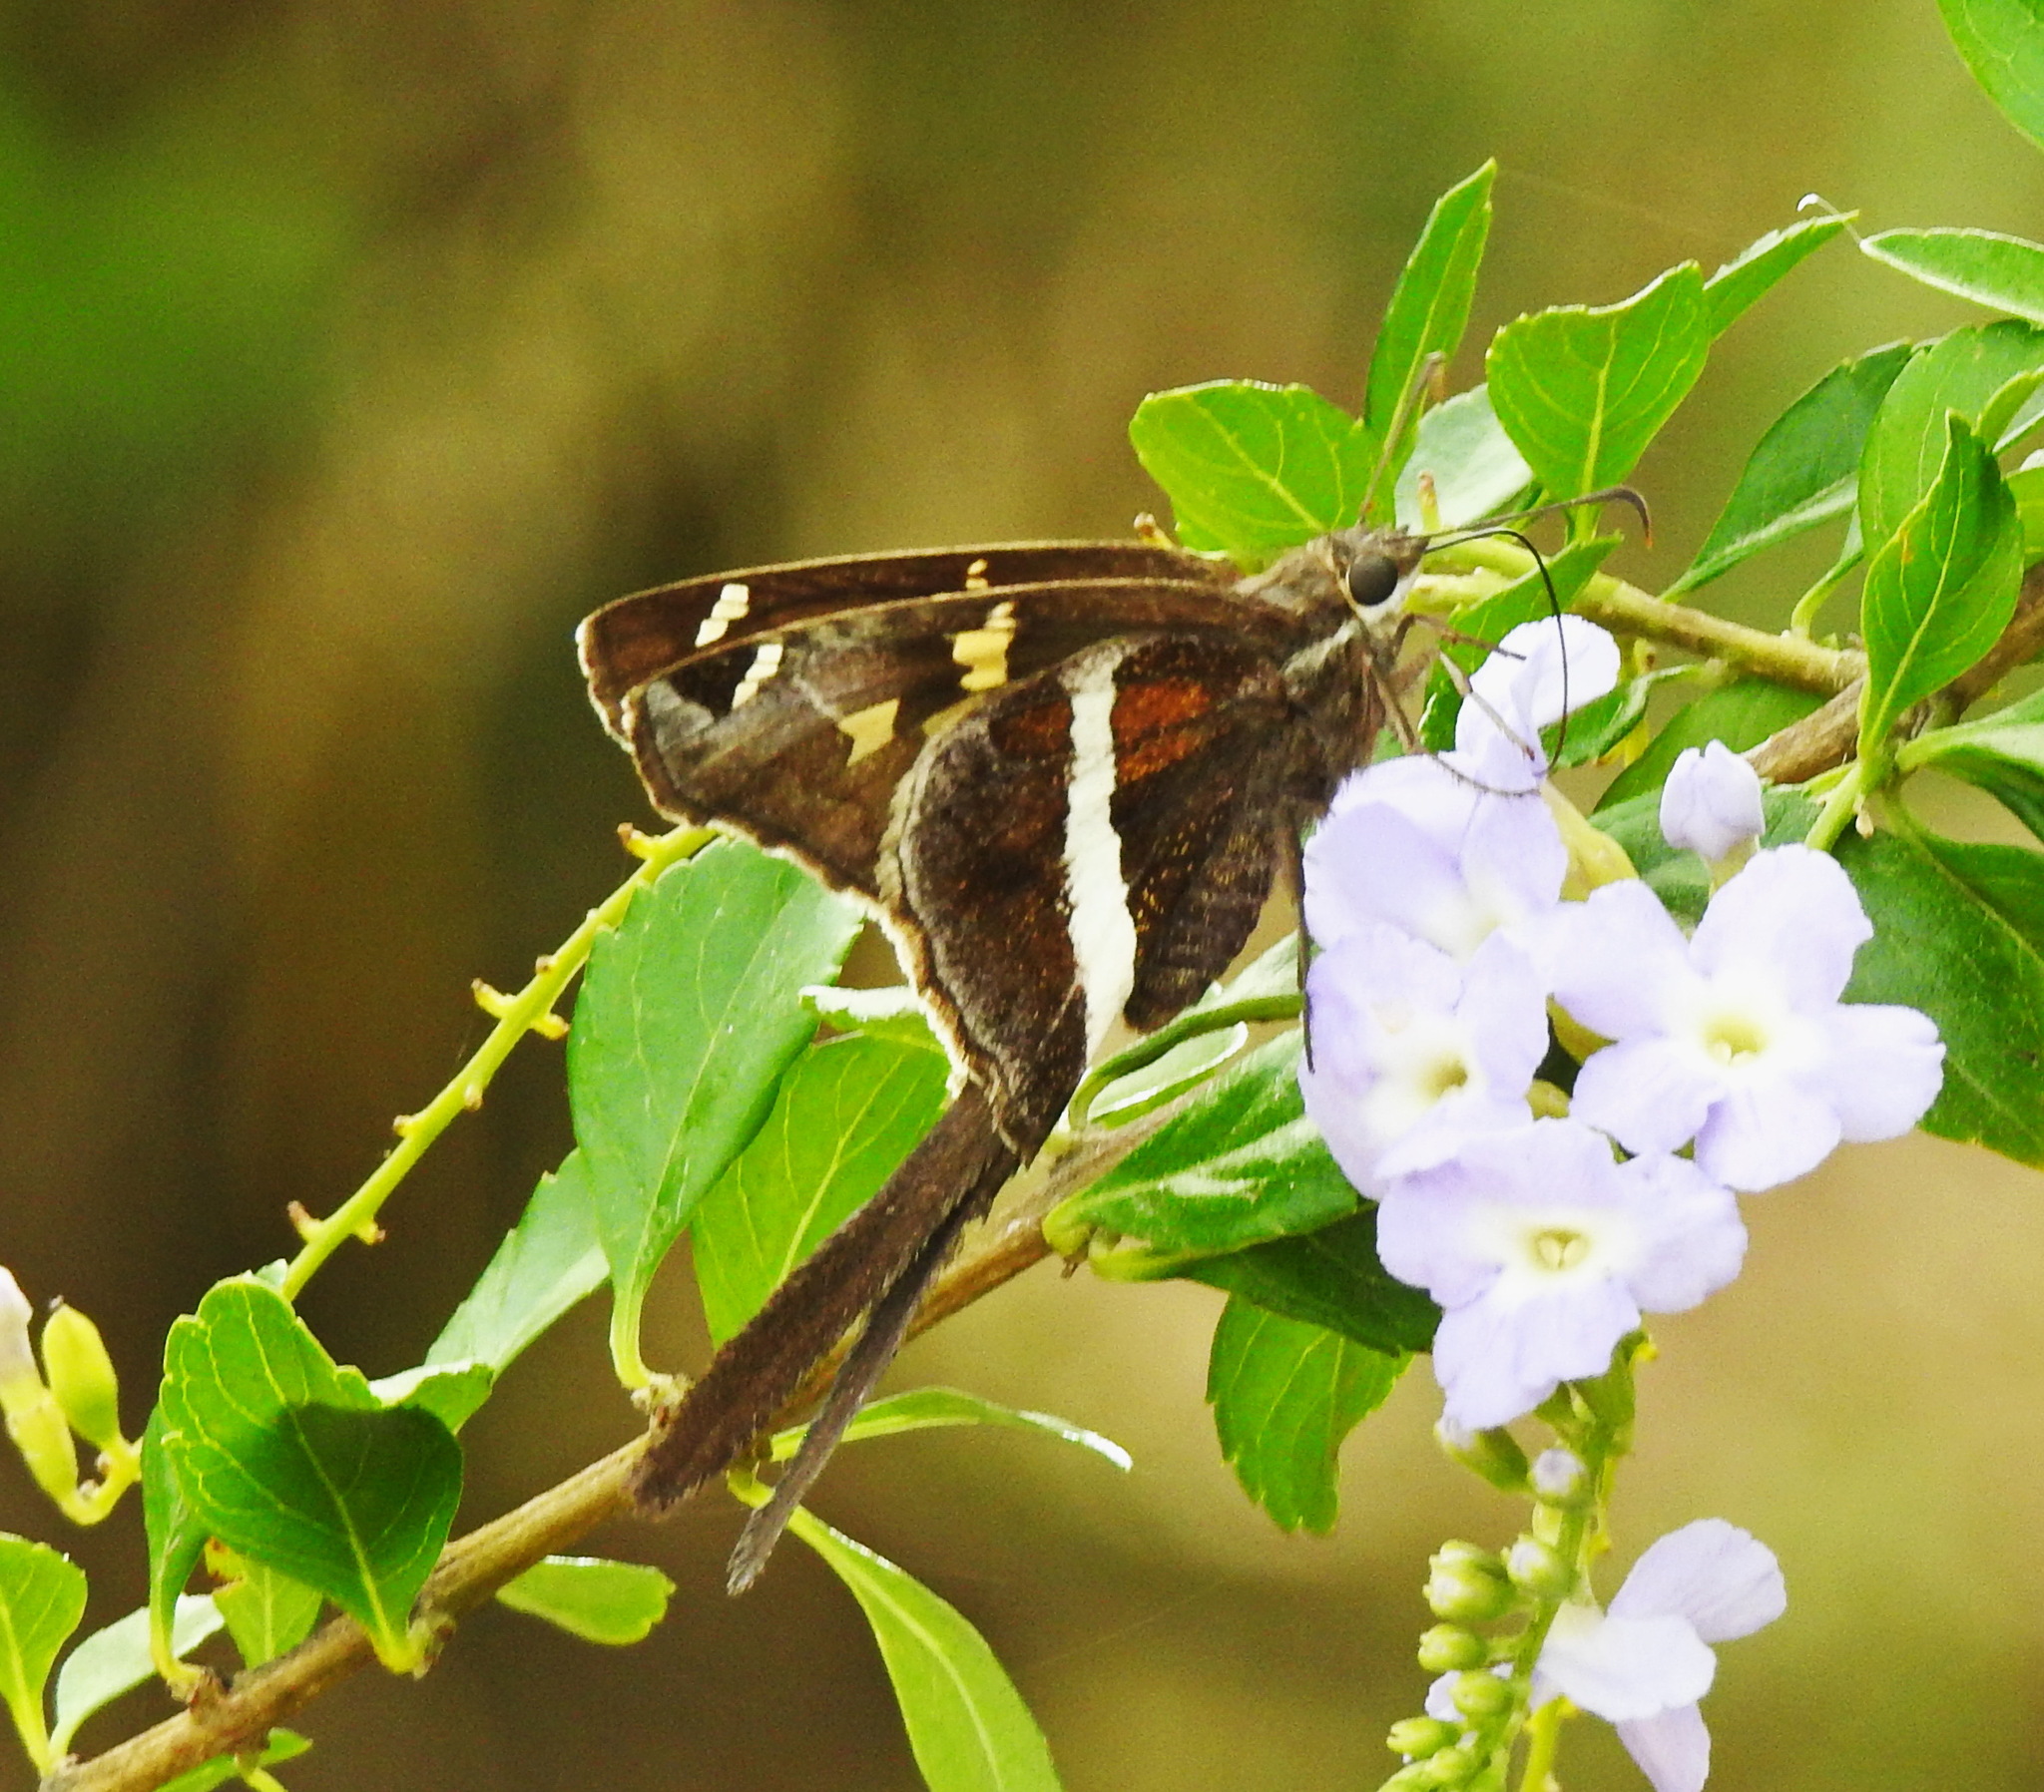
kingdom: Animalia
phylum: Arthropoda
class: Insecta
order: Lepidoptera
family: Hesperiidae
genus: Chioides
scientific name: Chioides catillus
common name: Silverbanded skipper
